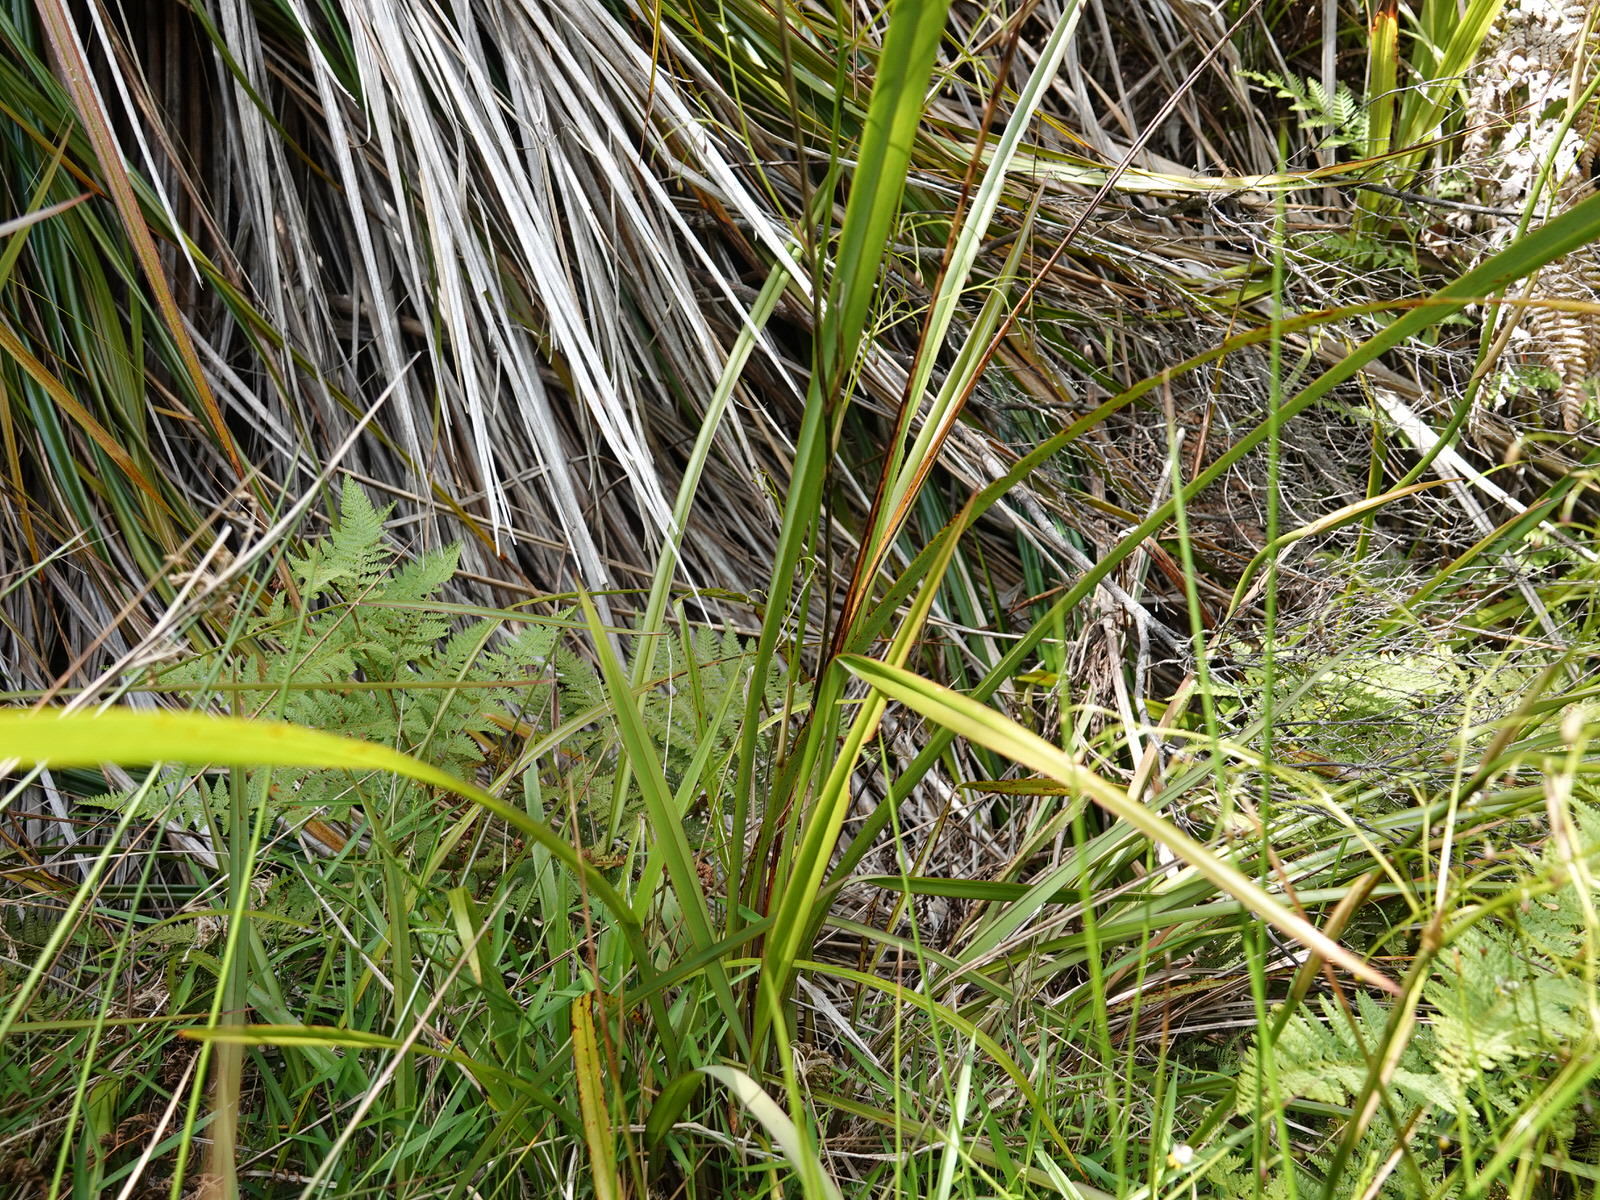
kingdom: Plantae
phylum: Tracheophyta
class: Liliopsida
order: Asparagales
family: Asphodelaceae
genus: Dianella
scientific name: Dianella nigra
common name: New zealand-blueberry
